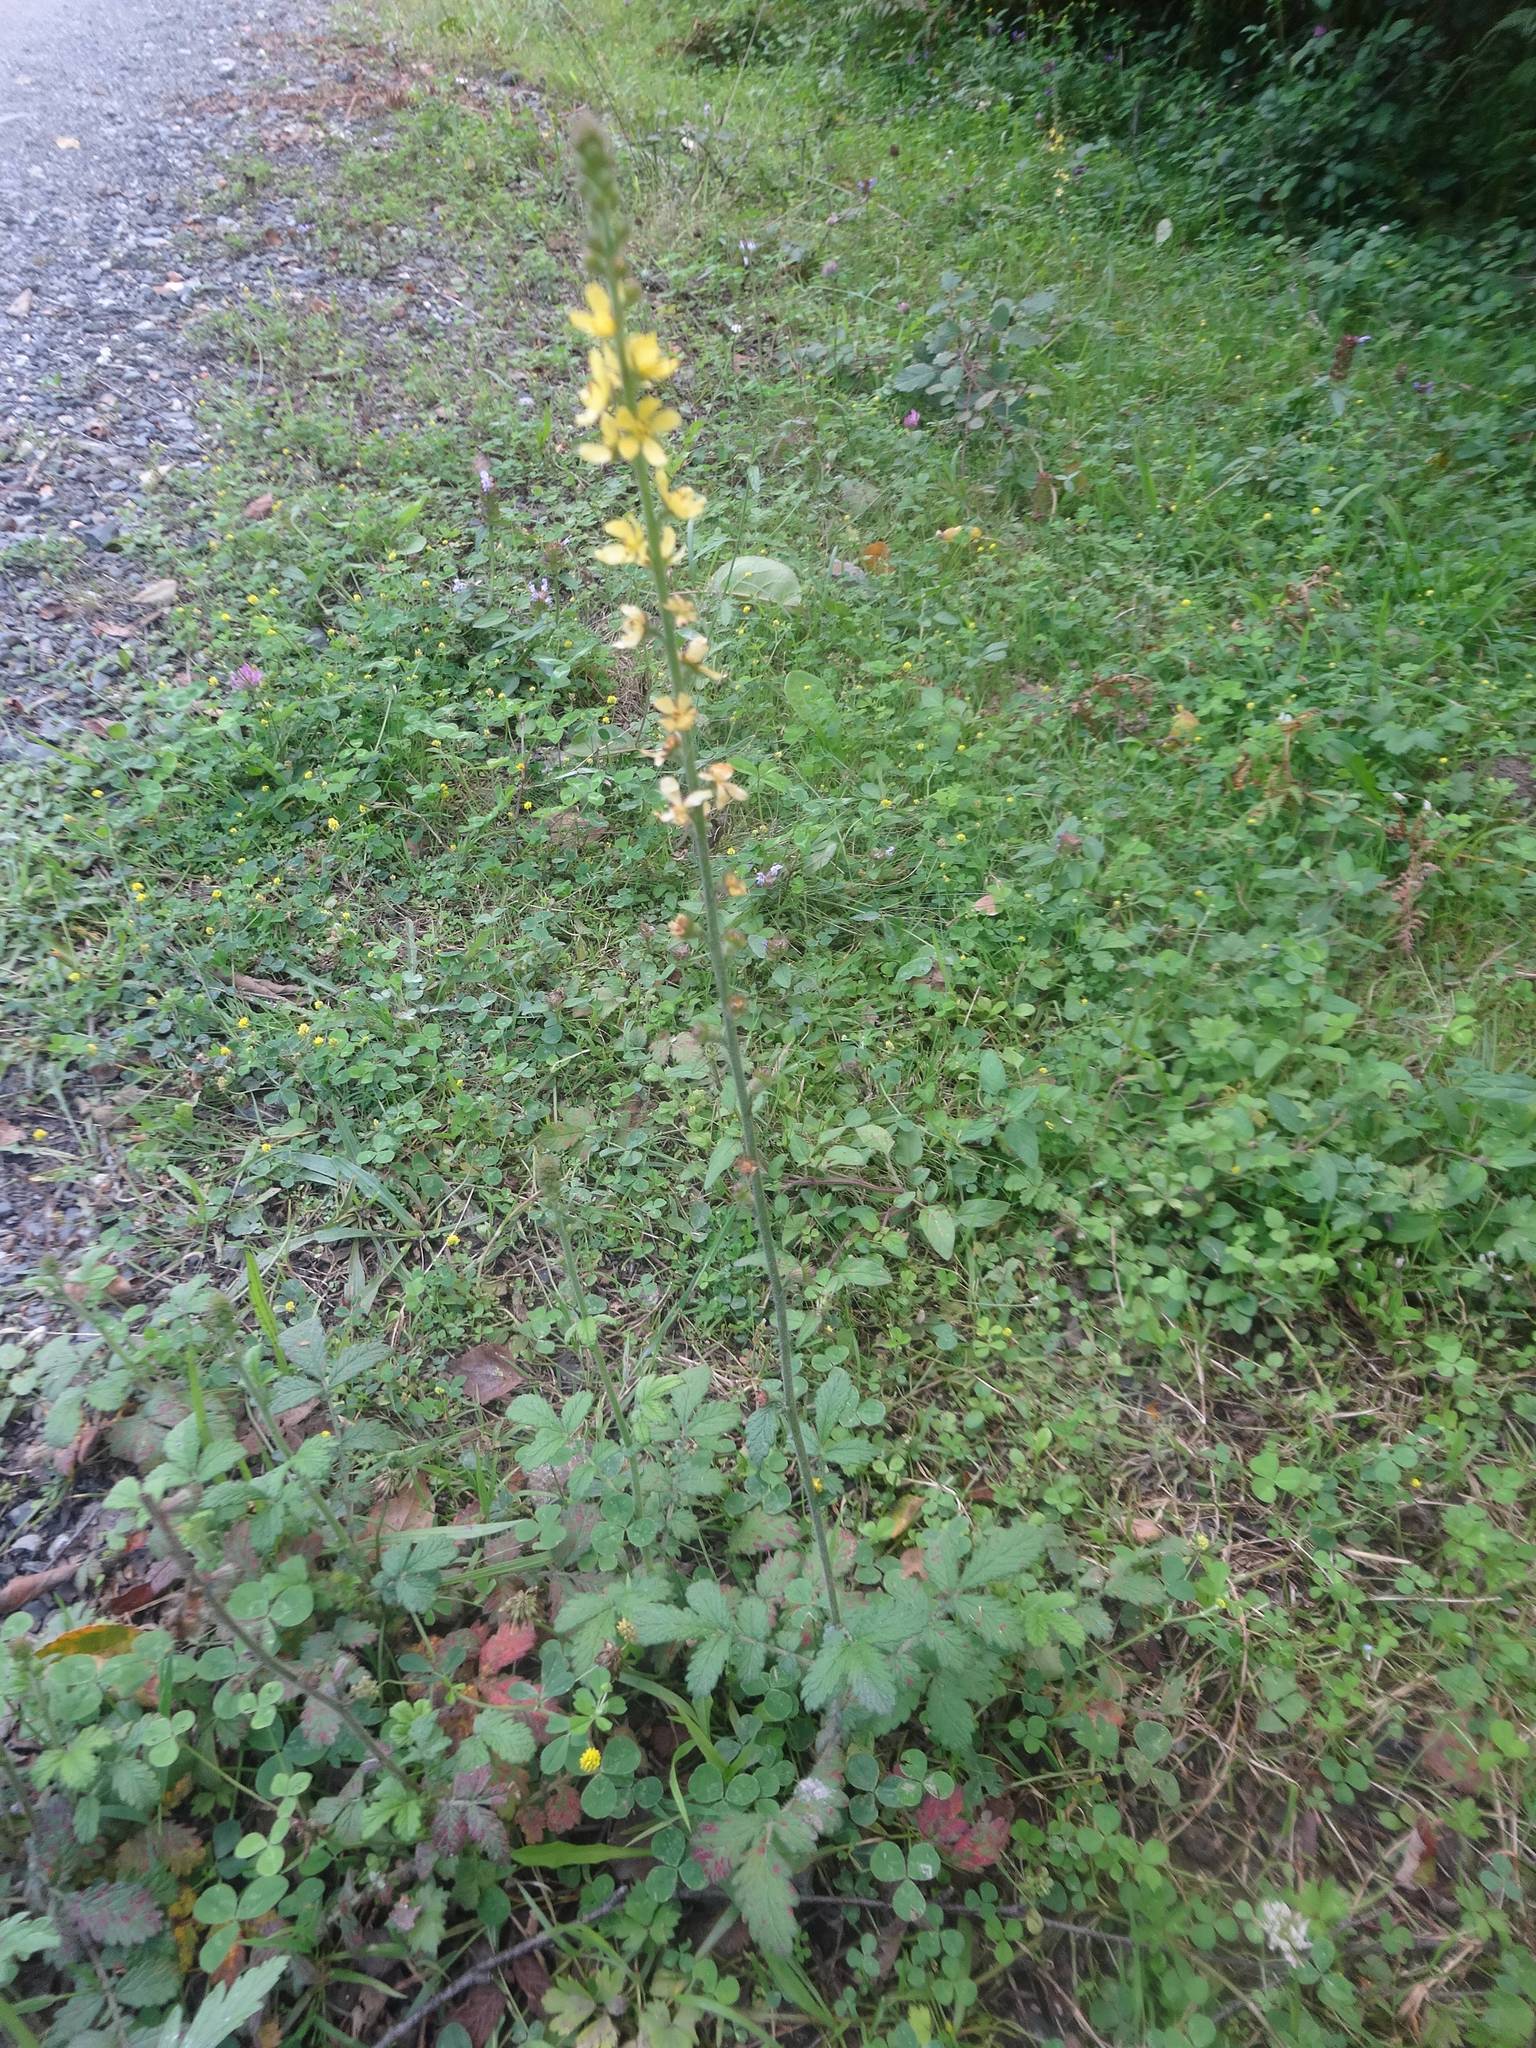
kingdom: Plantae
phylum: Tracheophyta
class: Magnoliopsida
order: Rosales
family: Rosaceae
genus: Agrimonia
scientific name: Agrimonia eupatoria
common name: Agrimony
